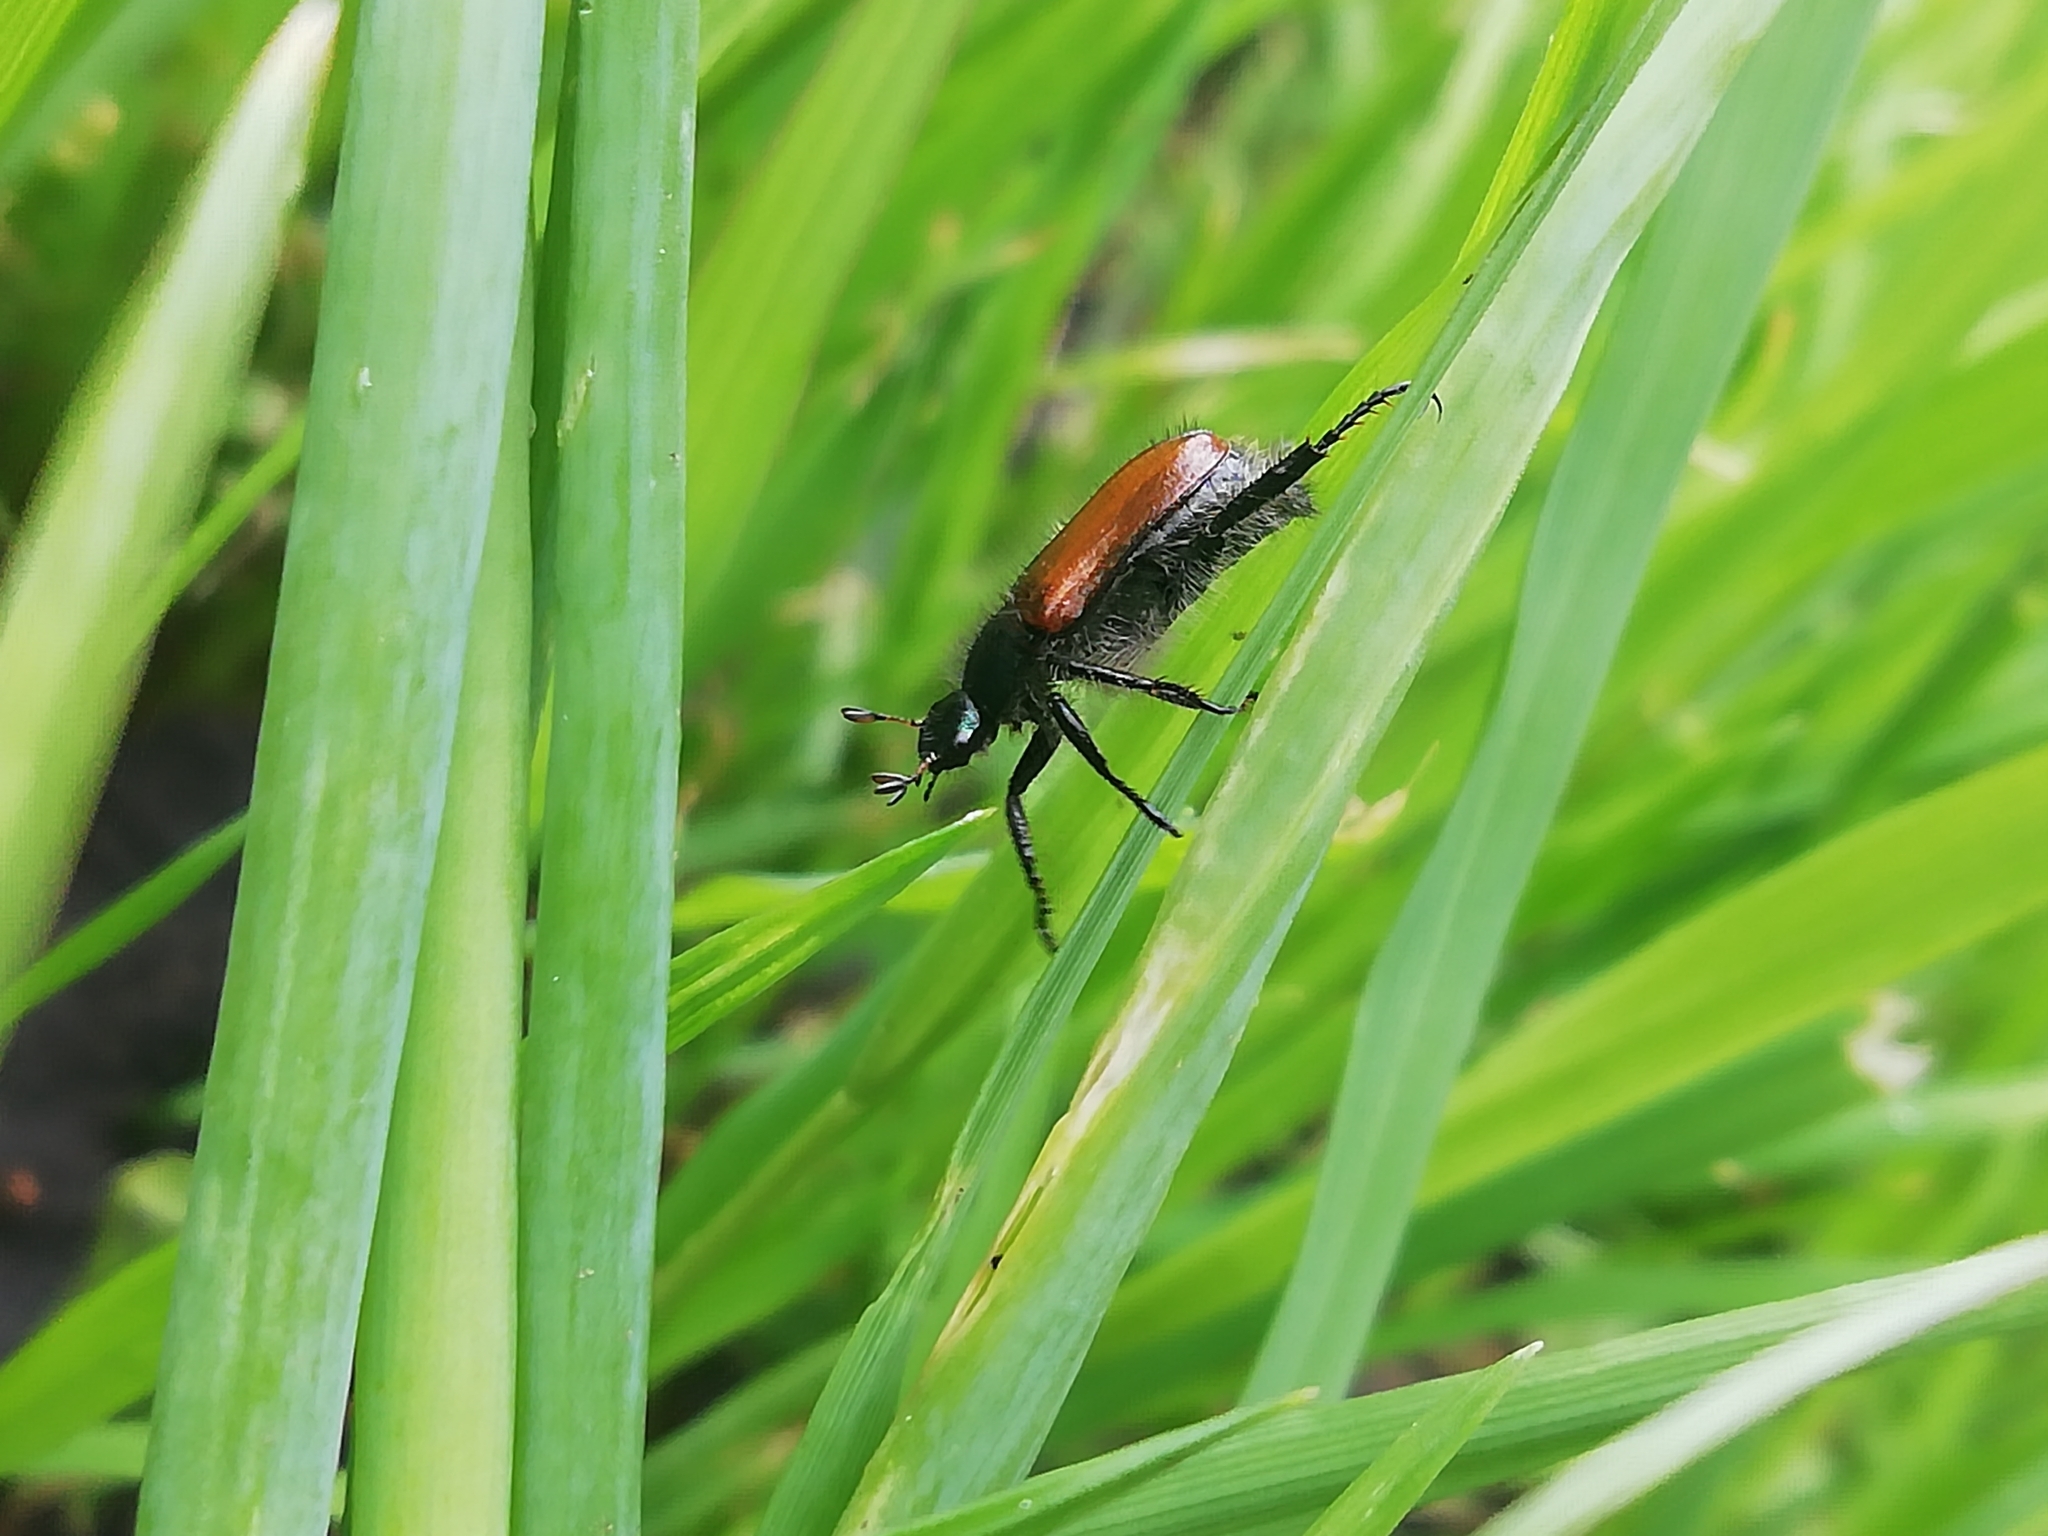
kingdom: Animalia
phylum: Arthropoda
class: Insecta
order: Coleoptera
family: Scarabaeidae
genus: Phyllopertha
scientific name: Phyllopertha horticola
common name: Garden chafer
